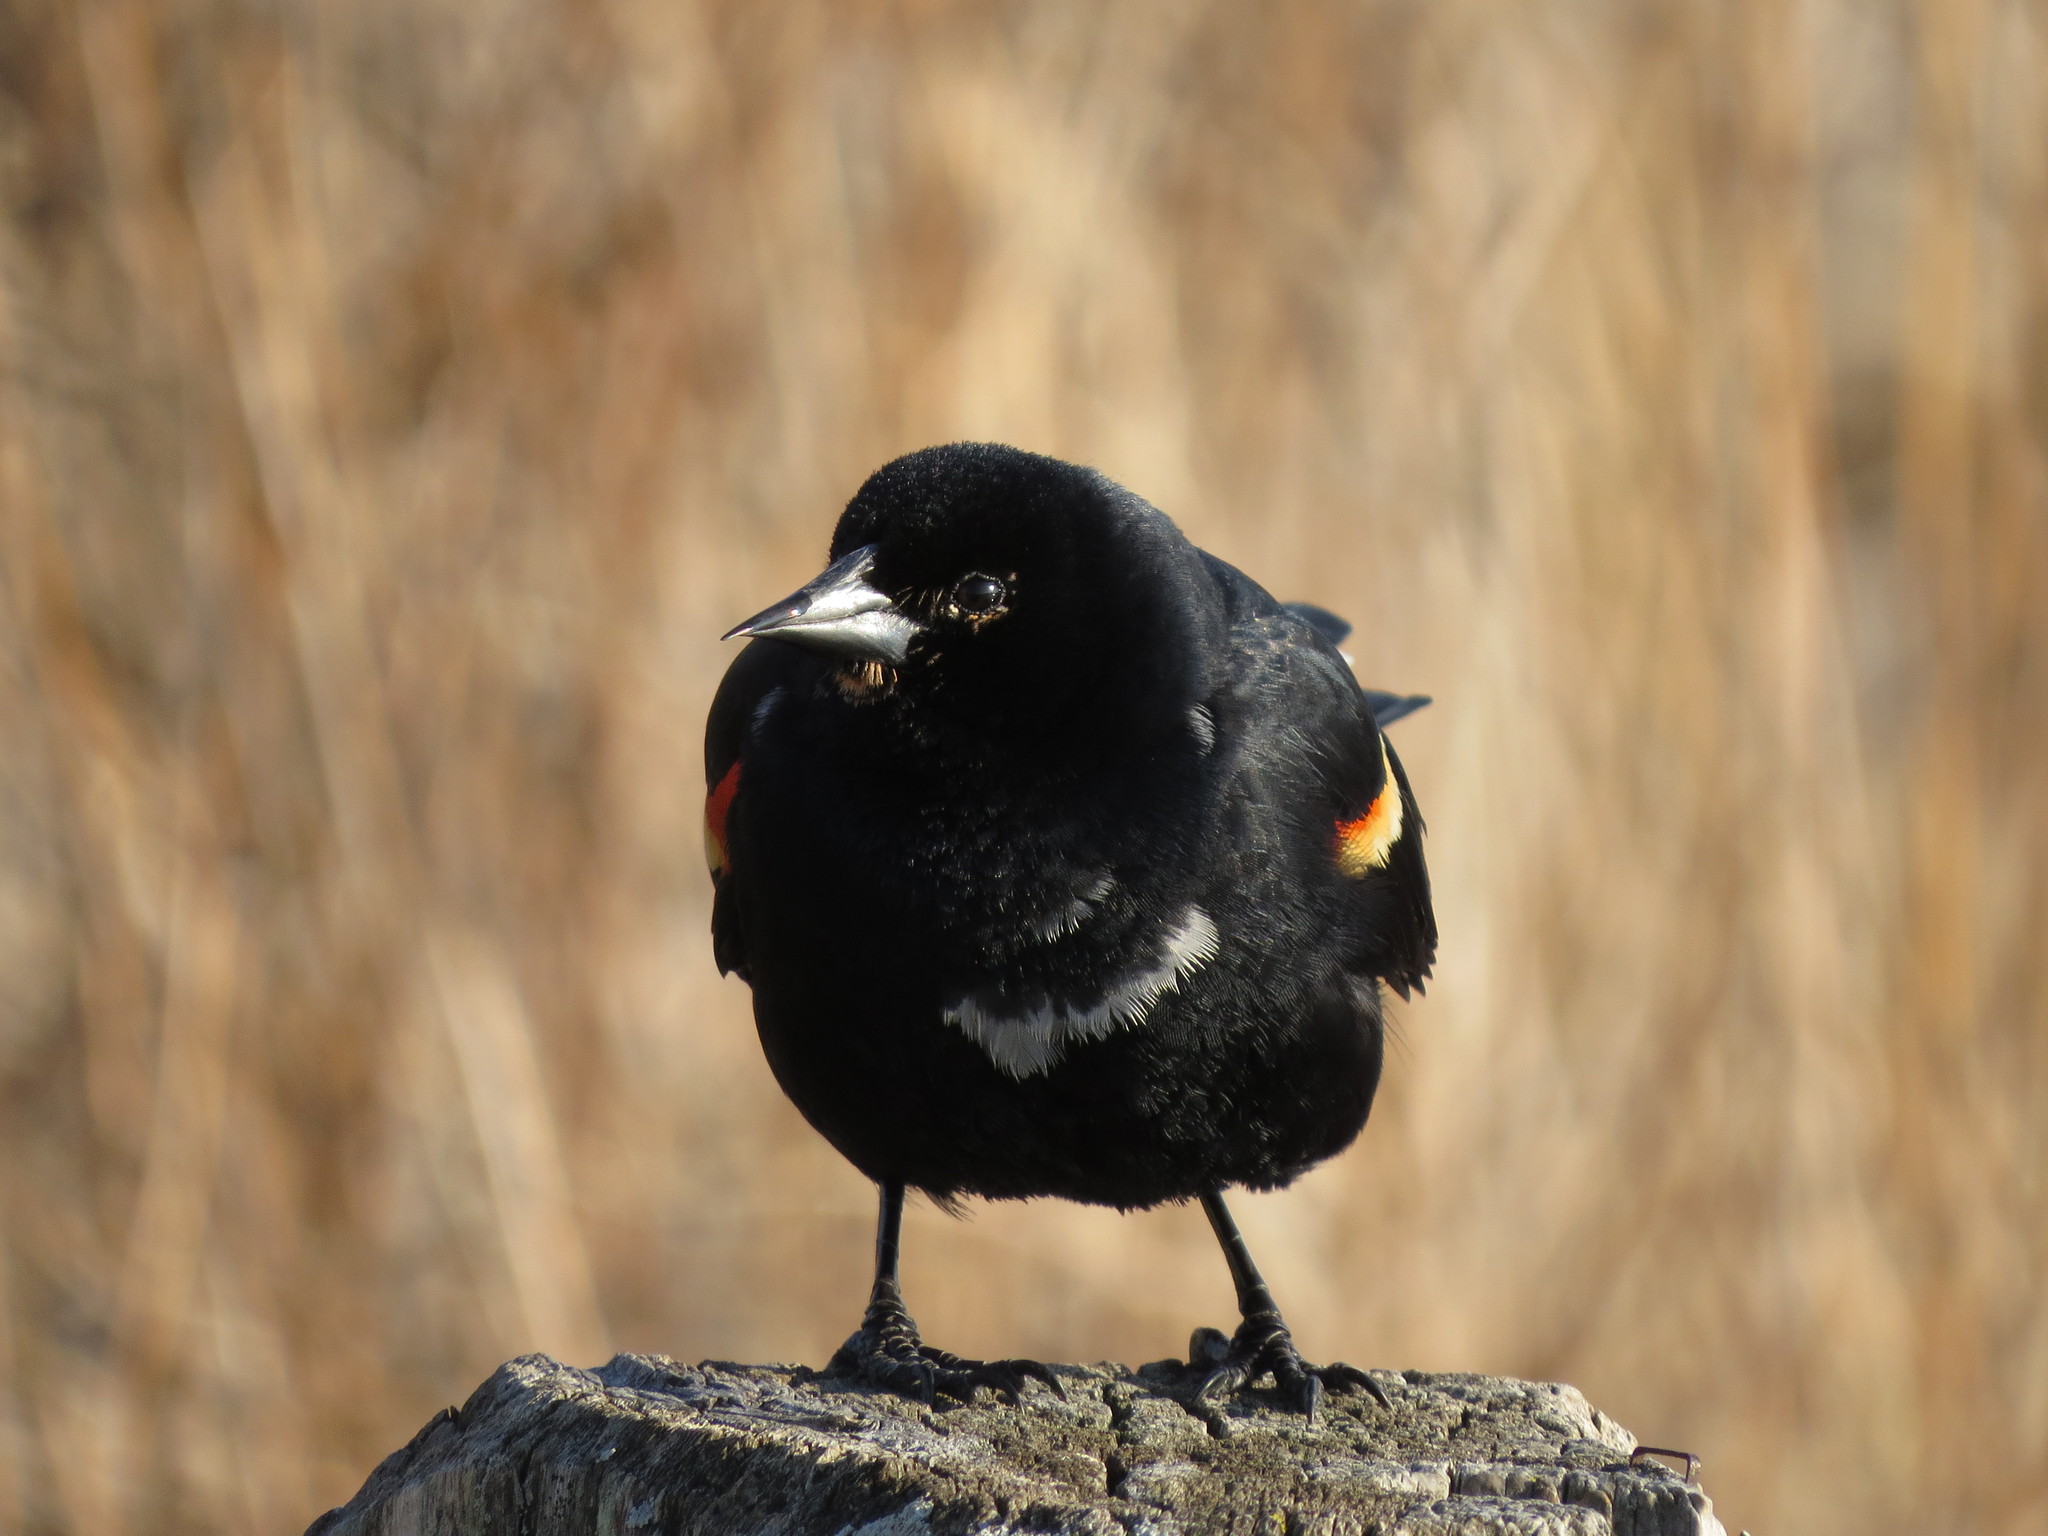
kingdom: Animalia
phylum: Chordata
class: Aves
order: Passeriformes
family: Icteridae
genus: Agelaius
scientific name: Agelaius phoeniceus
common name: Red-winged blackbird
